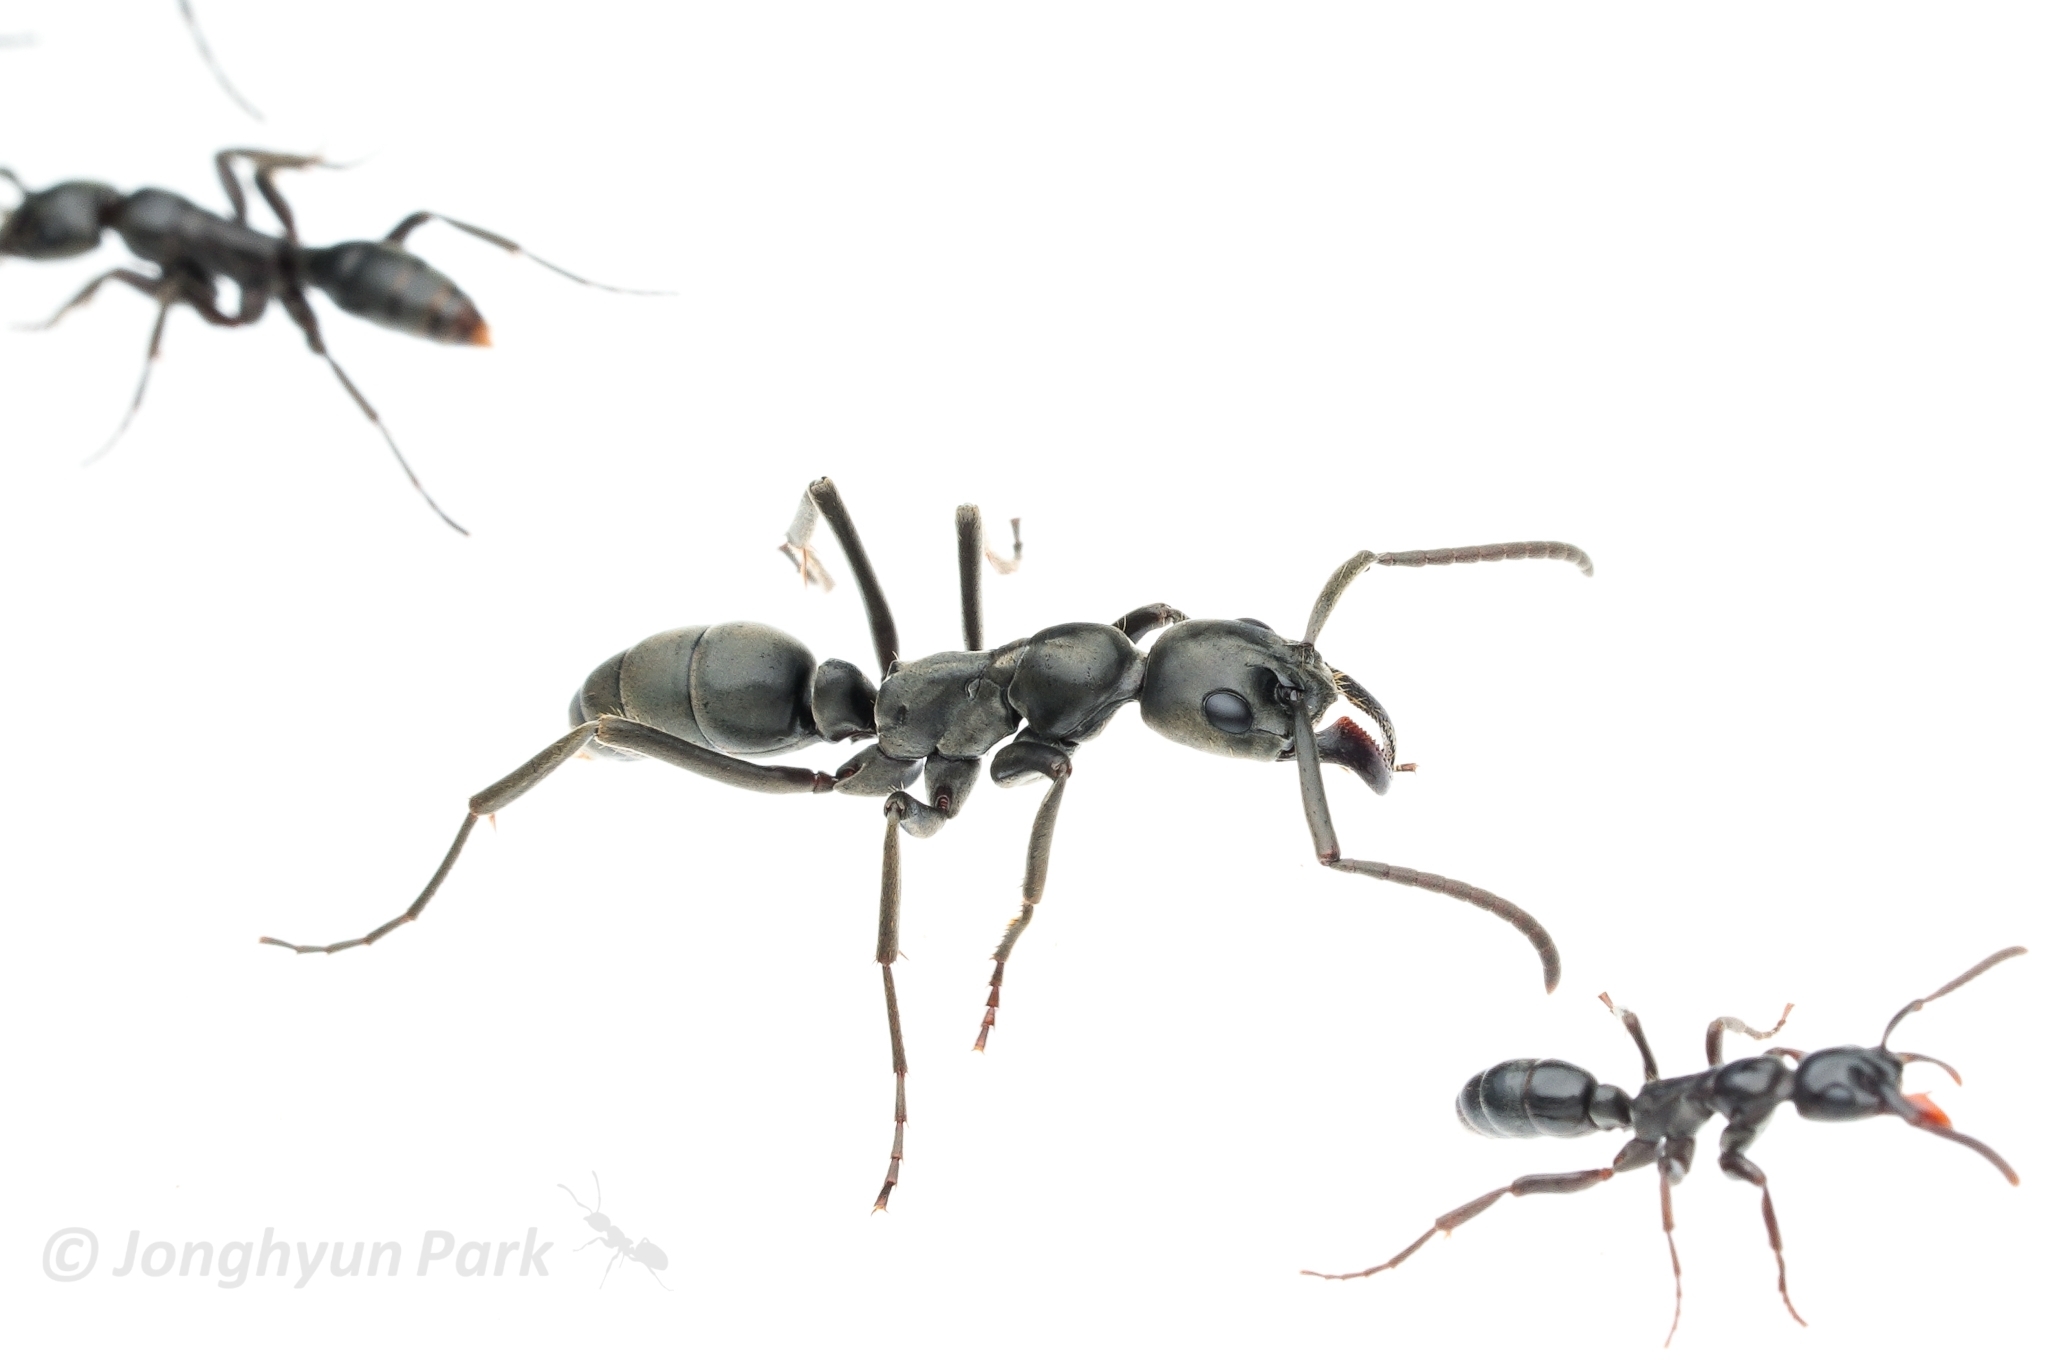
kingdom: Animalia
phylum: Arthropoda
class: Insecta
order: Hymenoptera
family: Formicidae
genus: Megaponera
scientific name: Megaponera analis
